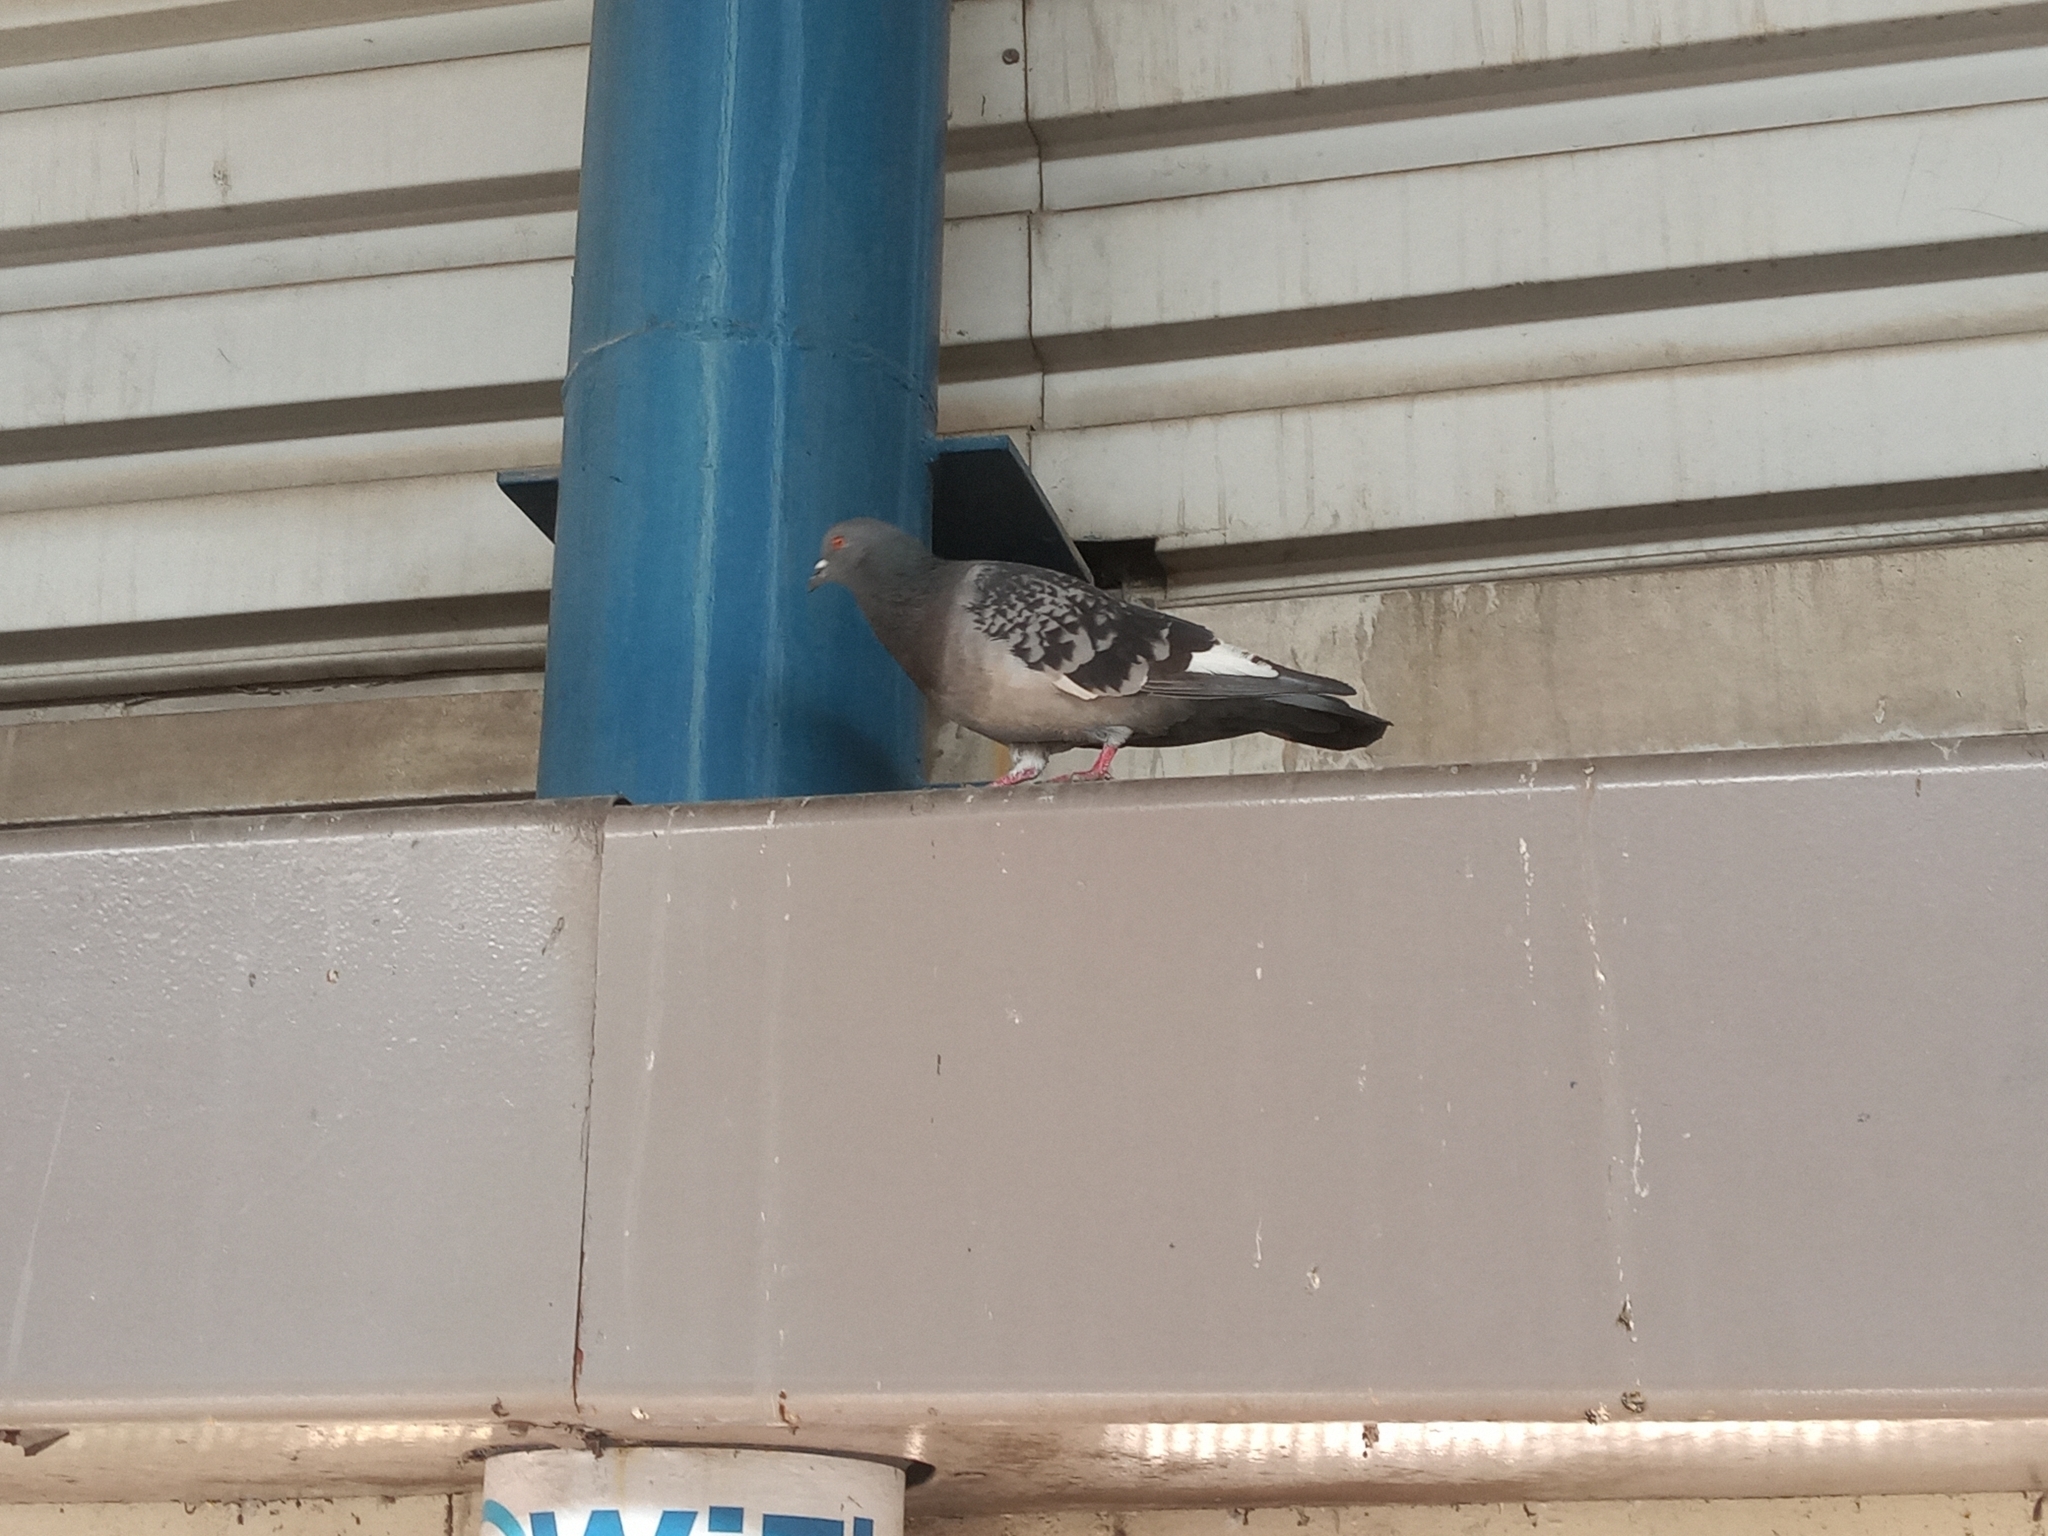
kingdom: Animalia
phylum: Chordata
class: Aves
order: Columbiformes
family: Columbidae
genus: Columba
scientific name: Columba livia
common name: Rock pigeon
